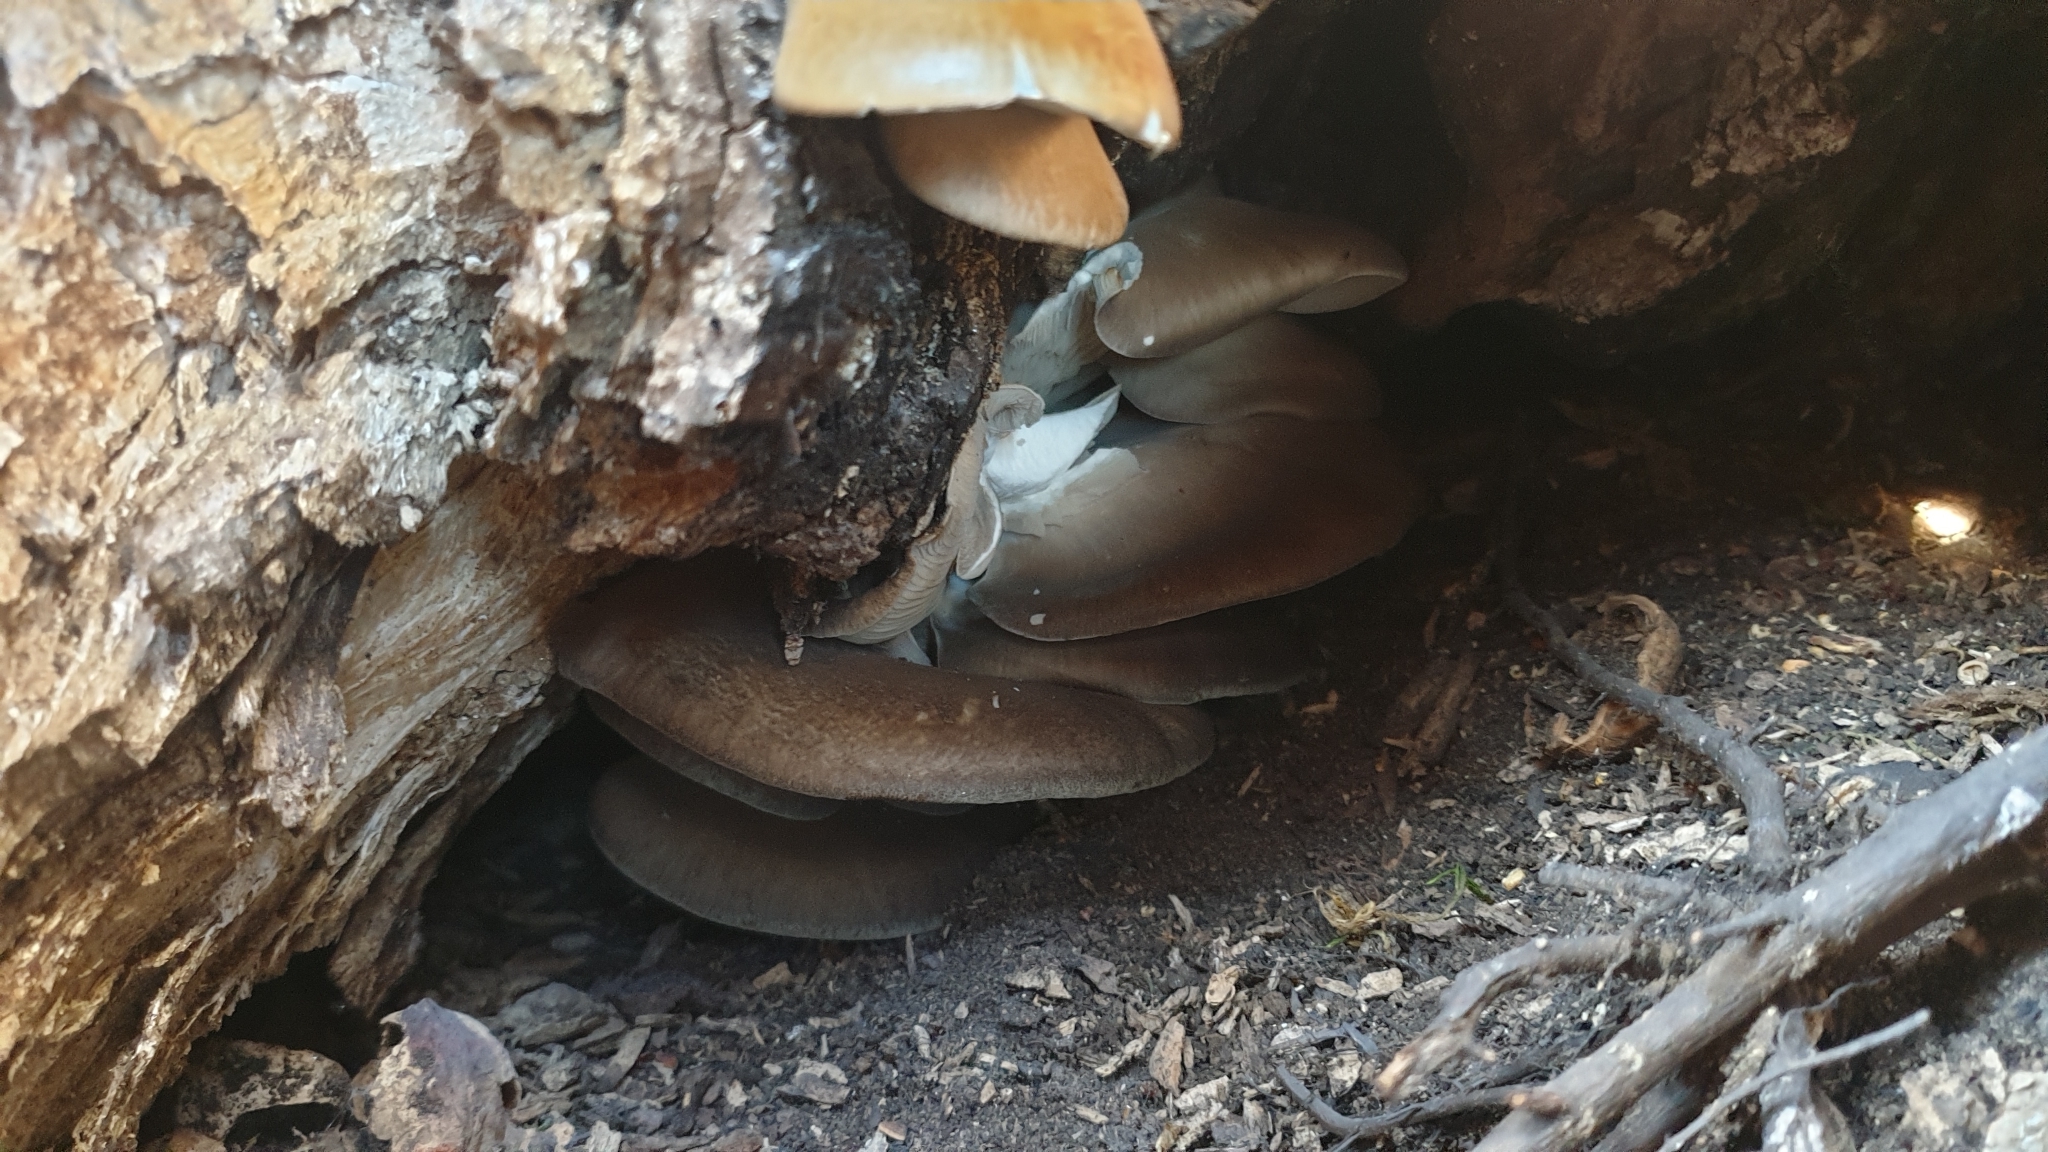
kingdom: Fungi
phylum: Basidiomycota
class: Agaricomycetes
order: Agaricales
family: Sarcomyxaceae
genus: Sarcomyxa
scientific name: Sarcomyxa serotina
